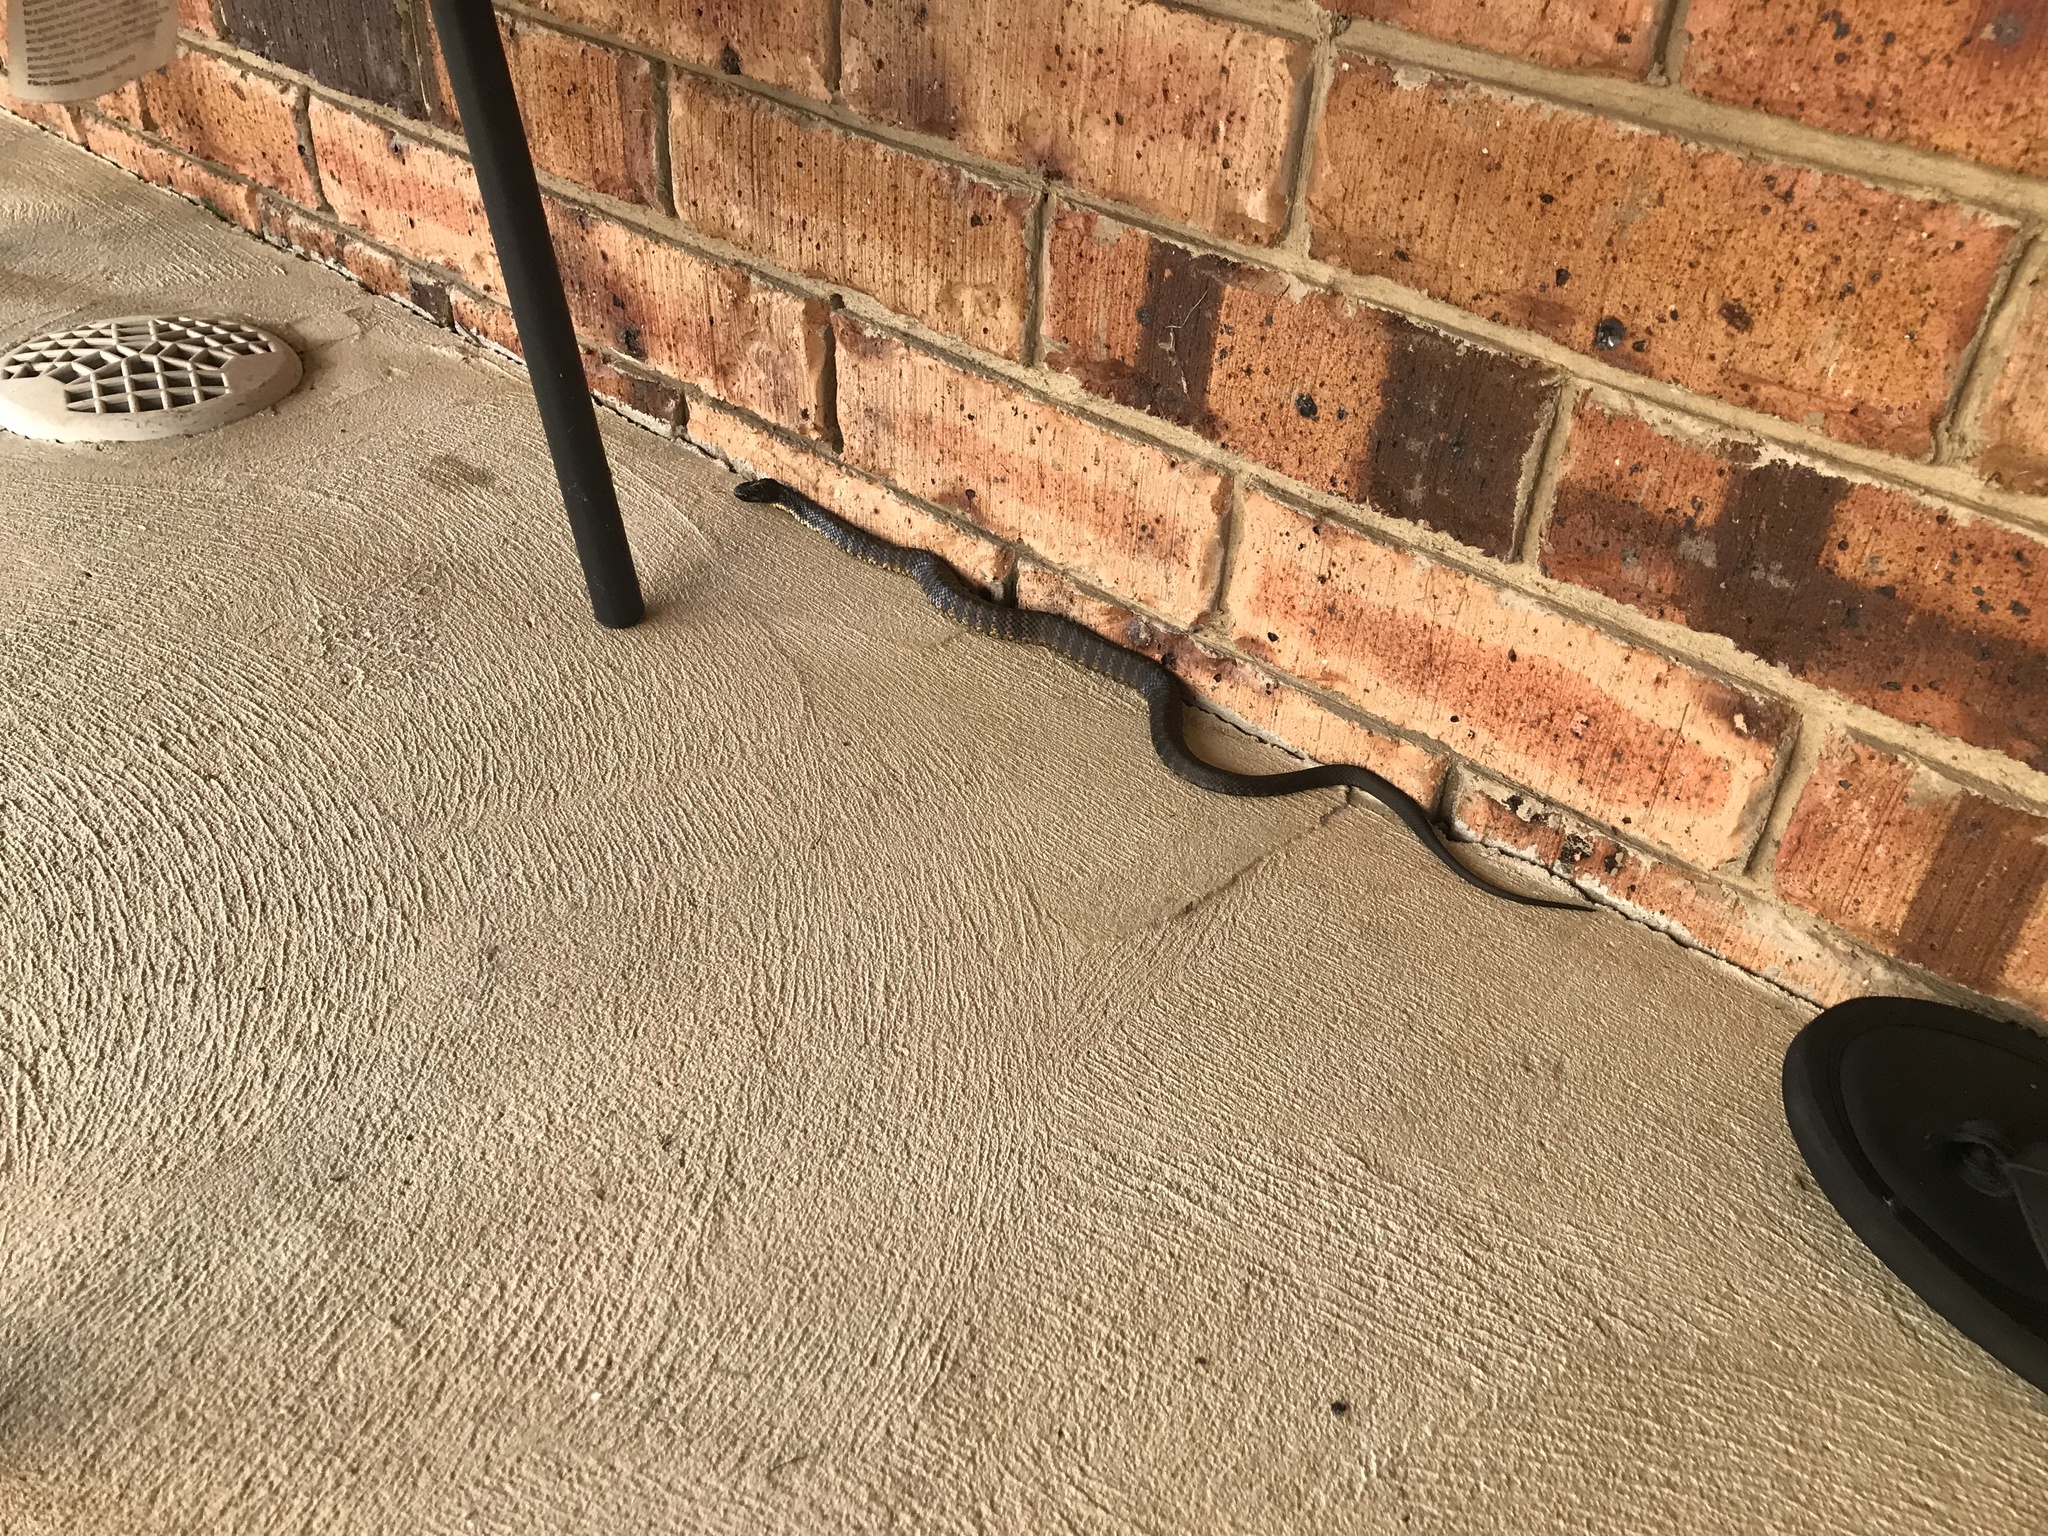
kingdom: Animalia
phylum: Chordata
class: Squamata
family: Elapidae
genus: Notechis
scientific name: Notechis scutatus
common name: Mainland tiger snake
